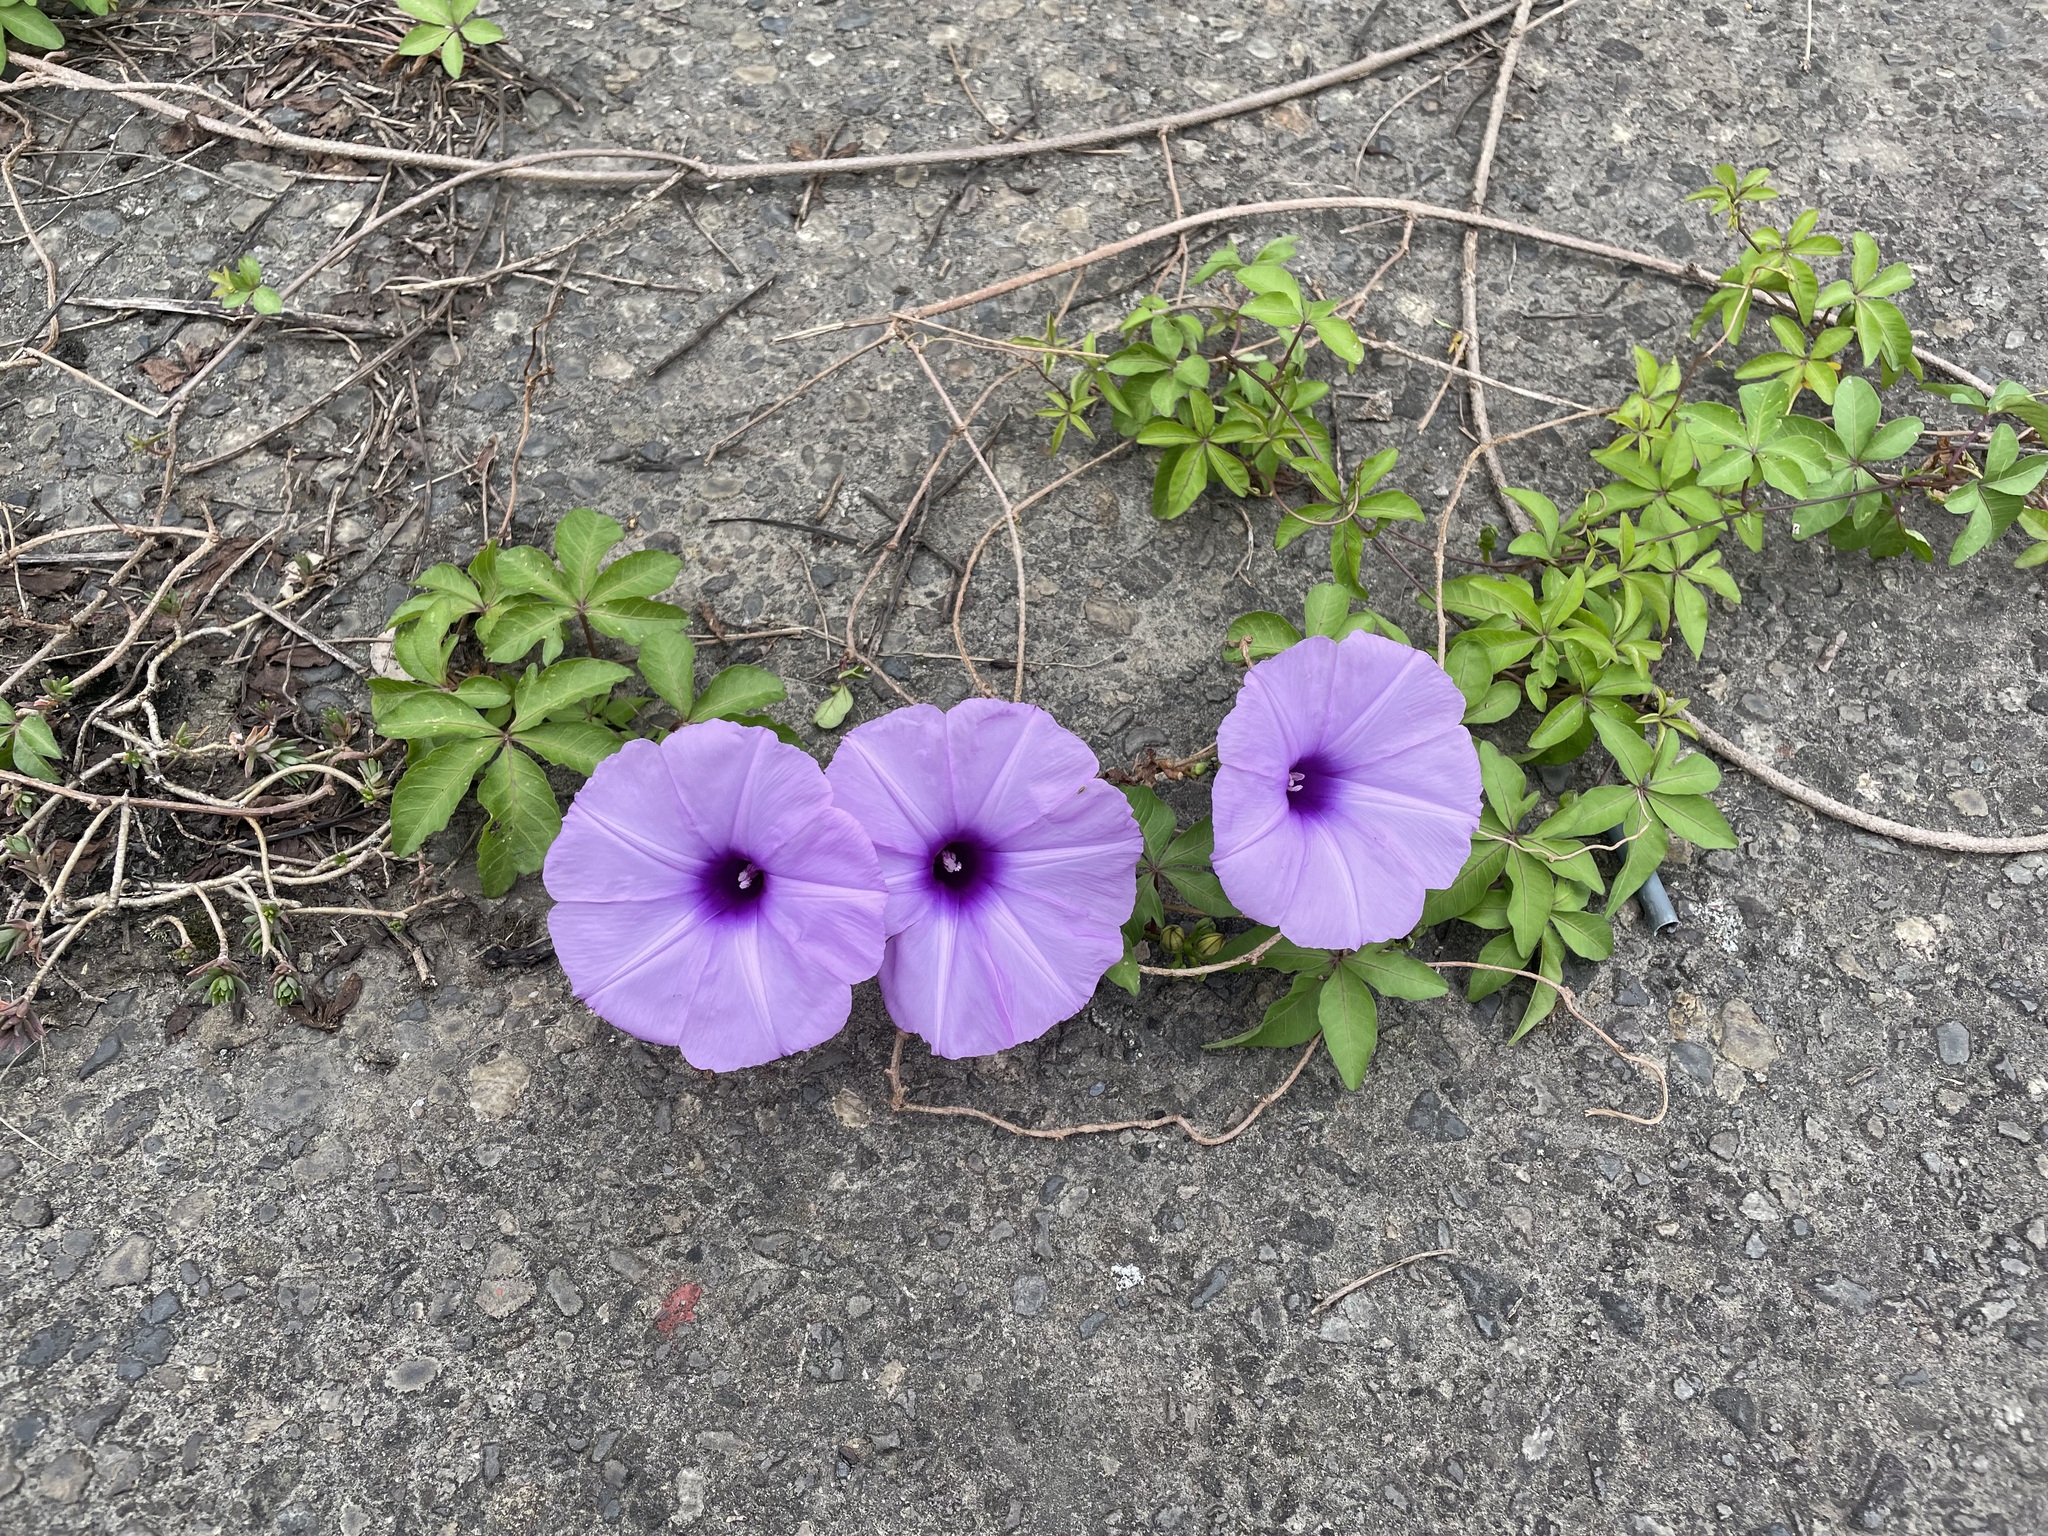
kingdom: Plantae
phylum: Tracheophyta
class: Magnoliopsida
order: Solanales
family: Convolvulaceae
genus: Ipomoea
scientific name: Ipomoea cairica
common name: Mile a minute vine
